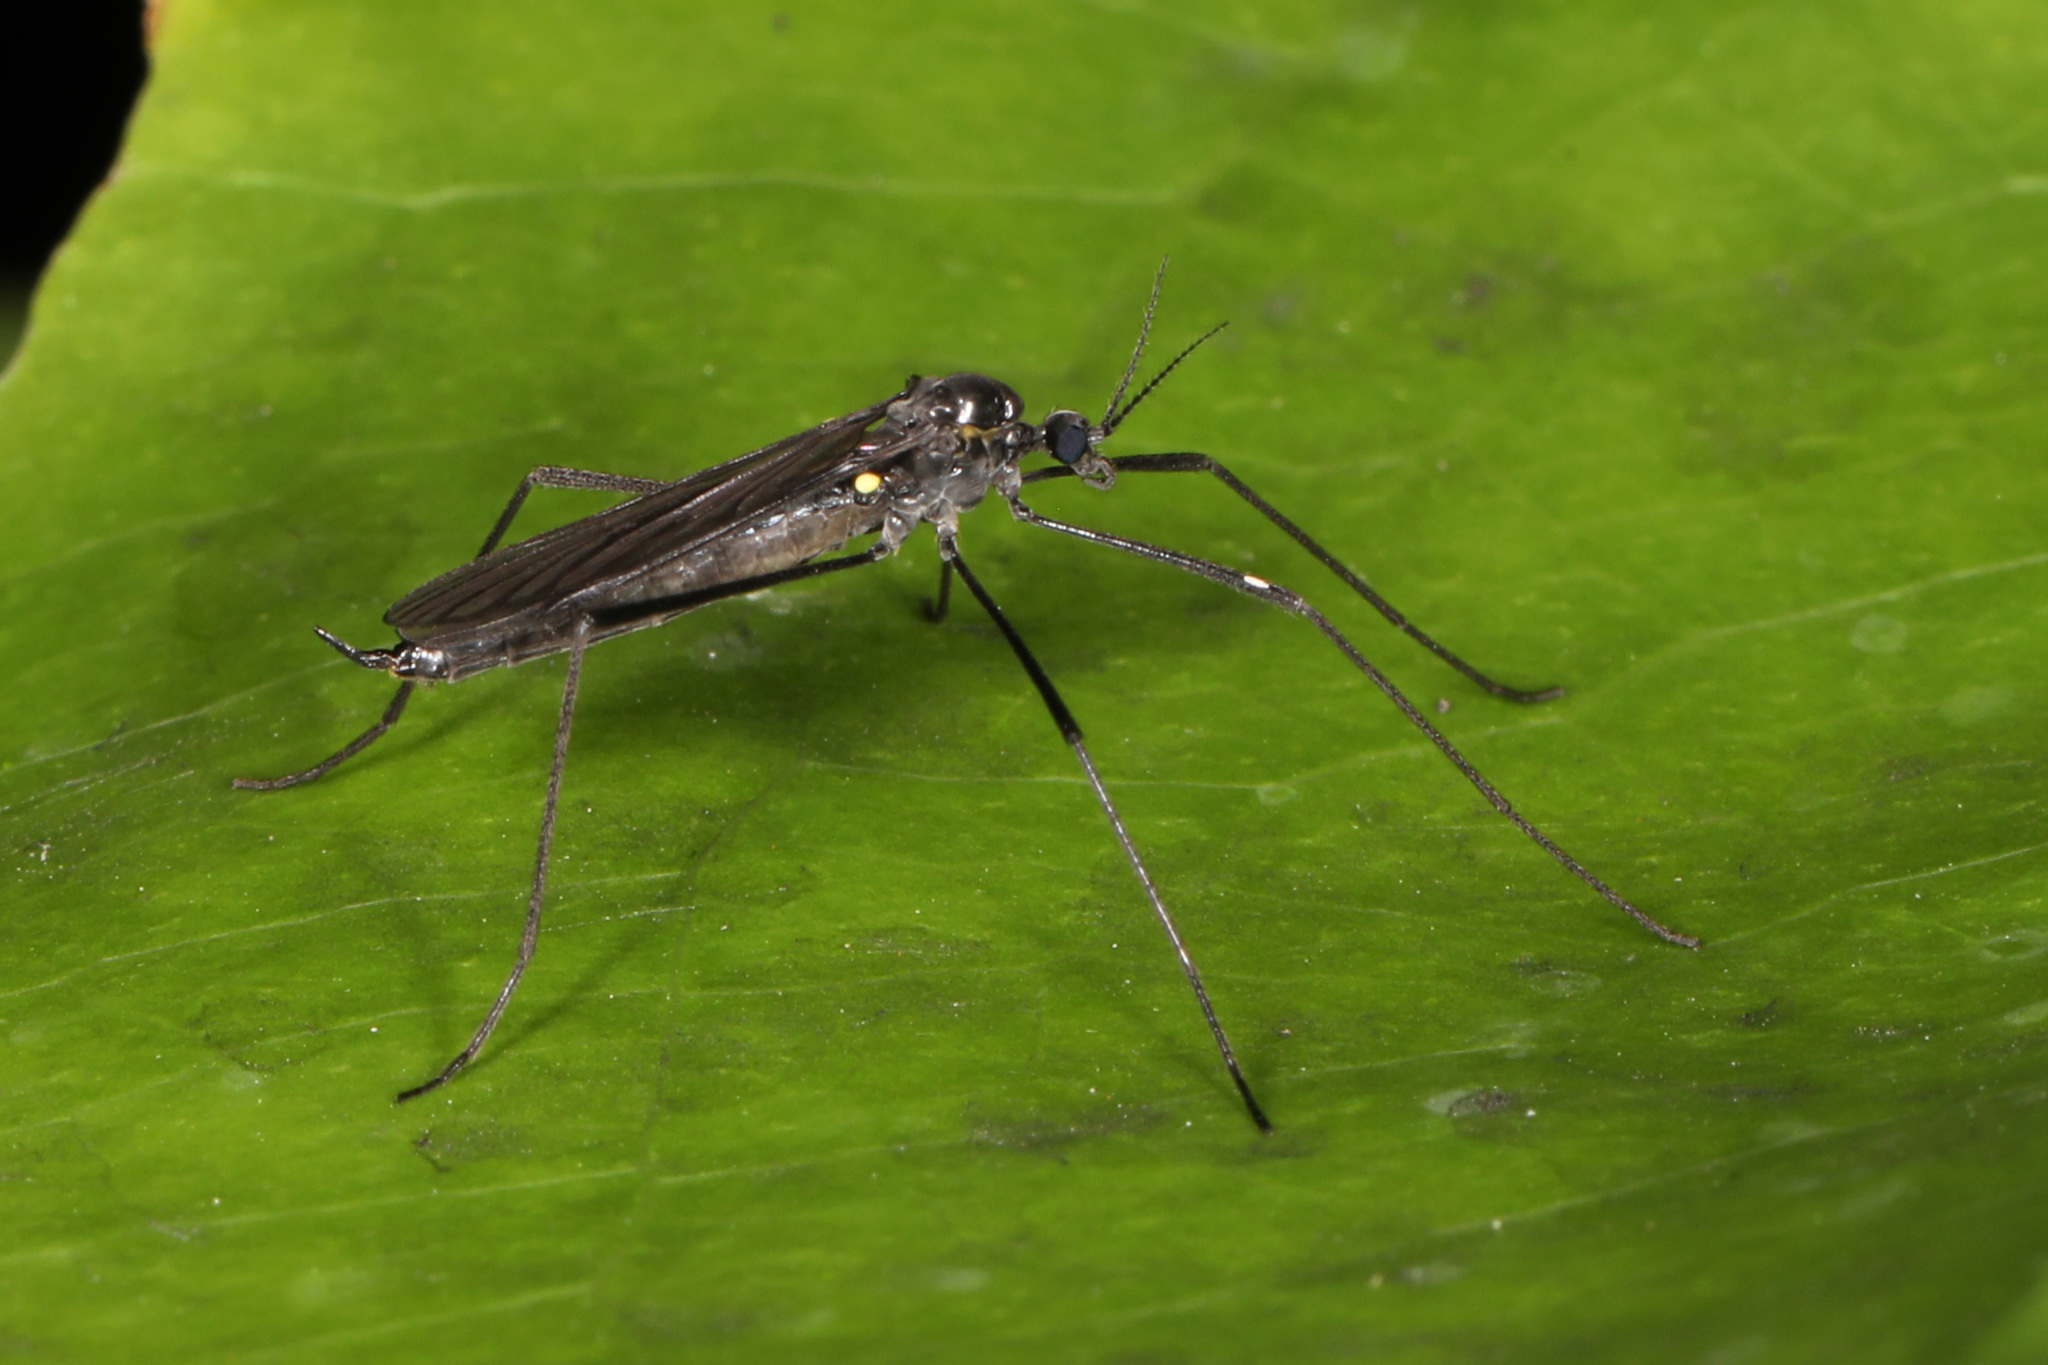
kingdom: Animalia
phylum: Arthropoda
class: Insecta
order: Diptera
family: Limoniidae
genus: Gnophomyia
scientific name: Gnophomyia tristissima
